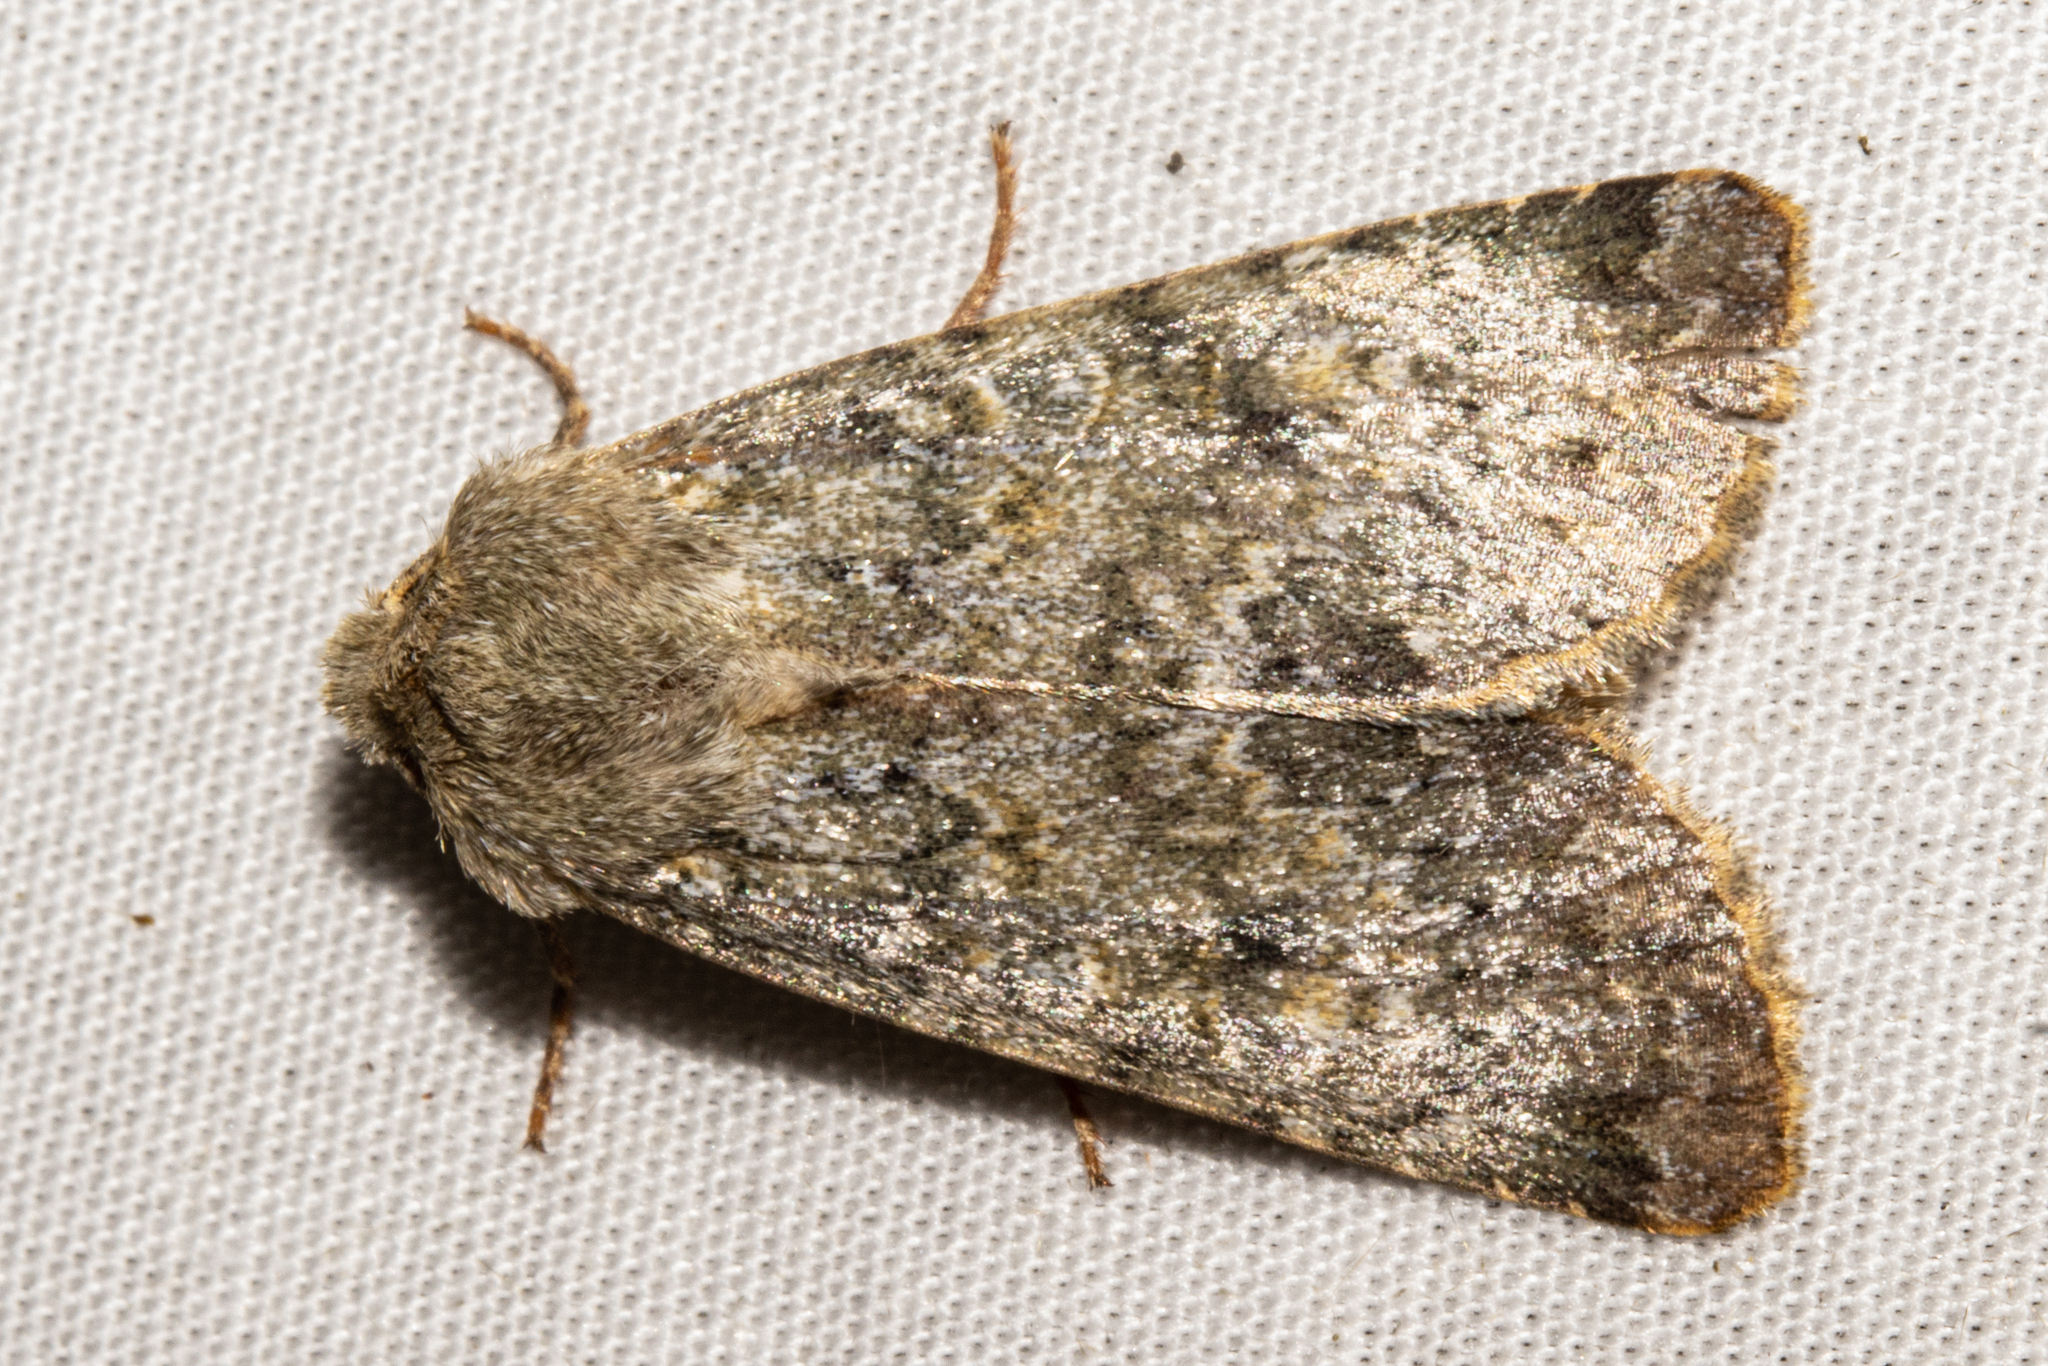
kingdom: Animalia
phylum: Arthropoda
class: Insecta
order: Lepidoptera
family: Noctuidae
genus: Ichneutica
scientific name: Ichneutica cuneata
